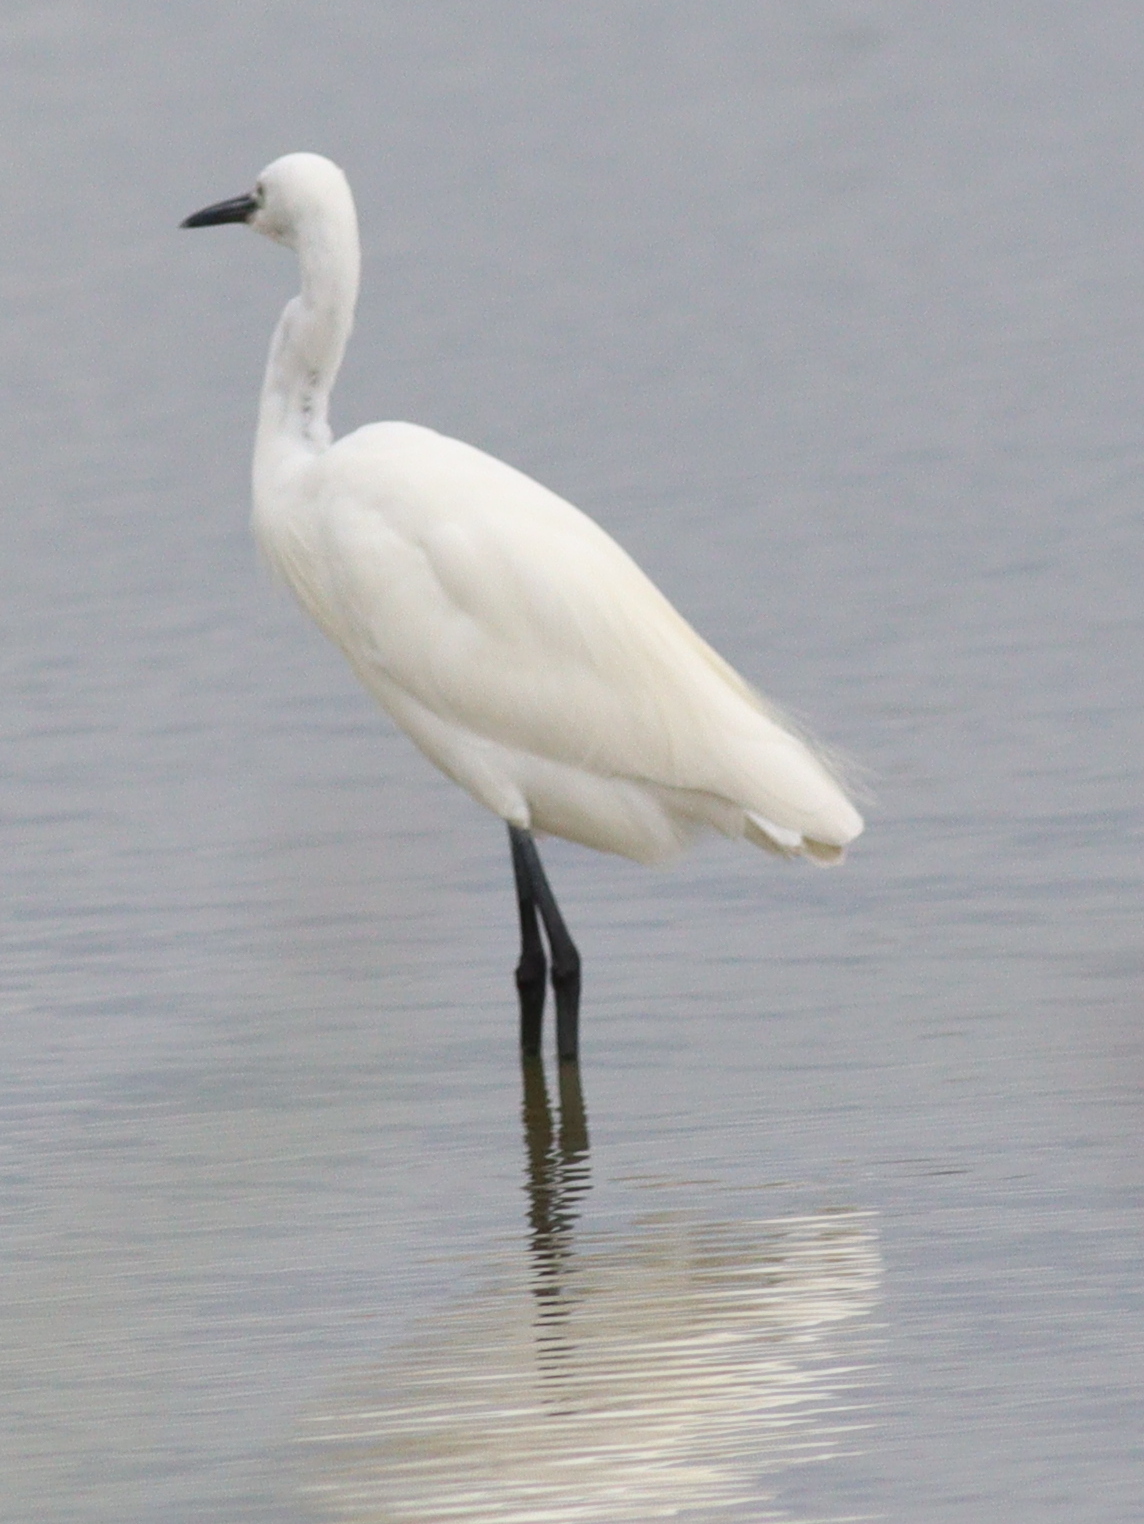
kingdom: Animalia
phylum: Chordata
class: Aves
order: Pelecaniformes
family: Ardeidae
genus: Egretta
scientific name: Egretta garzetta
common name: Little egret
